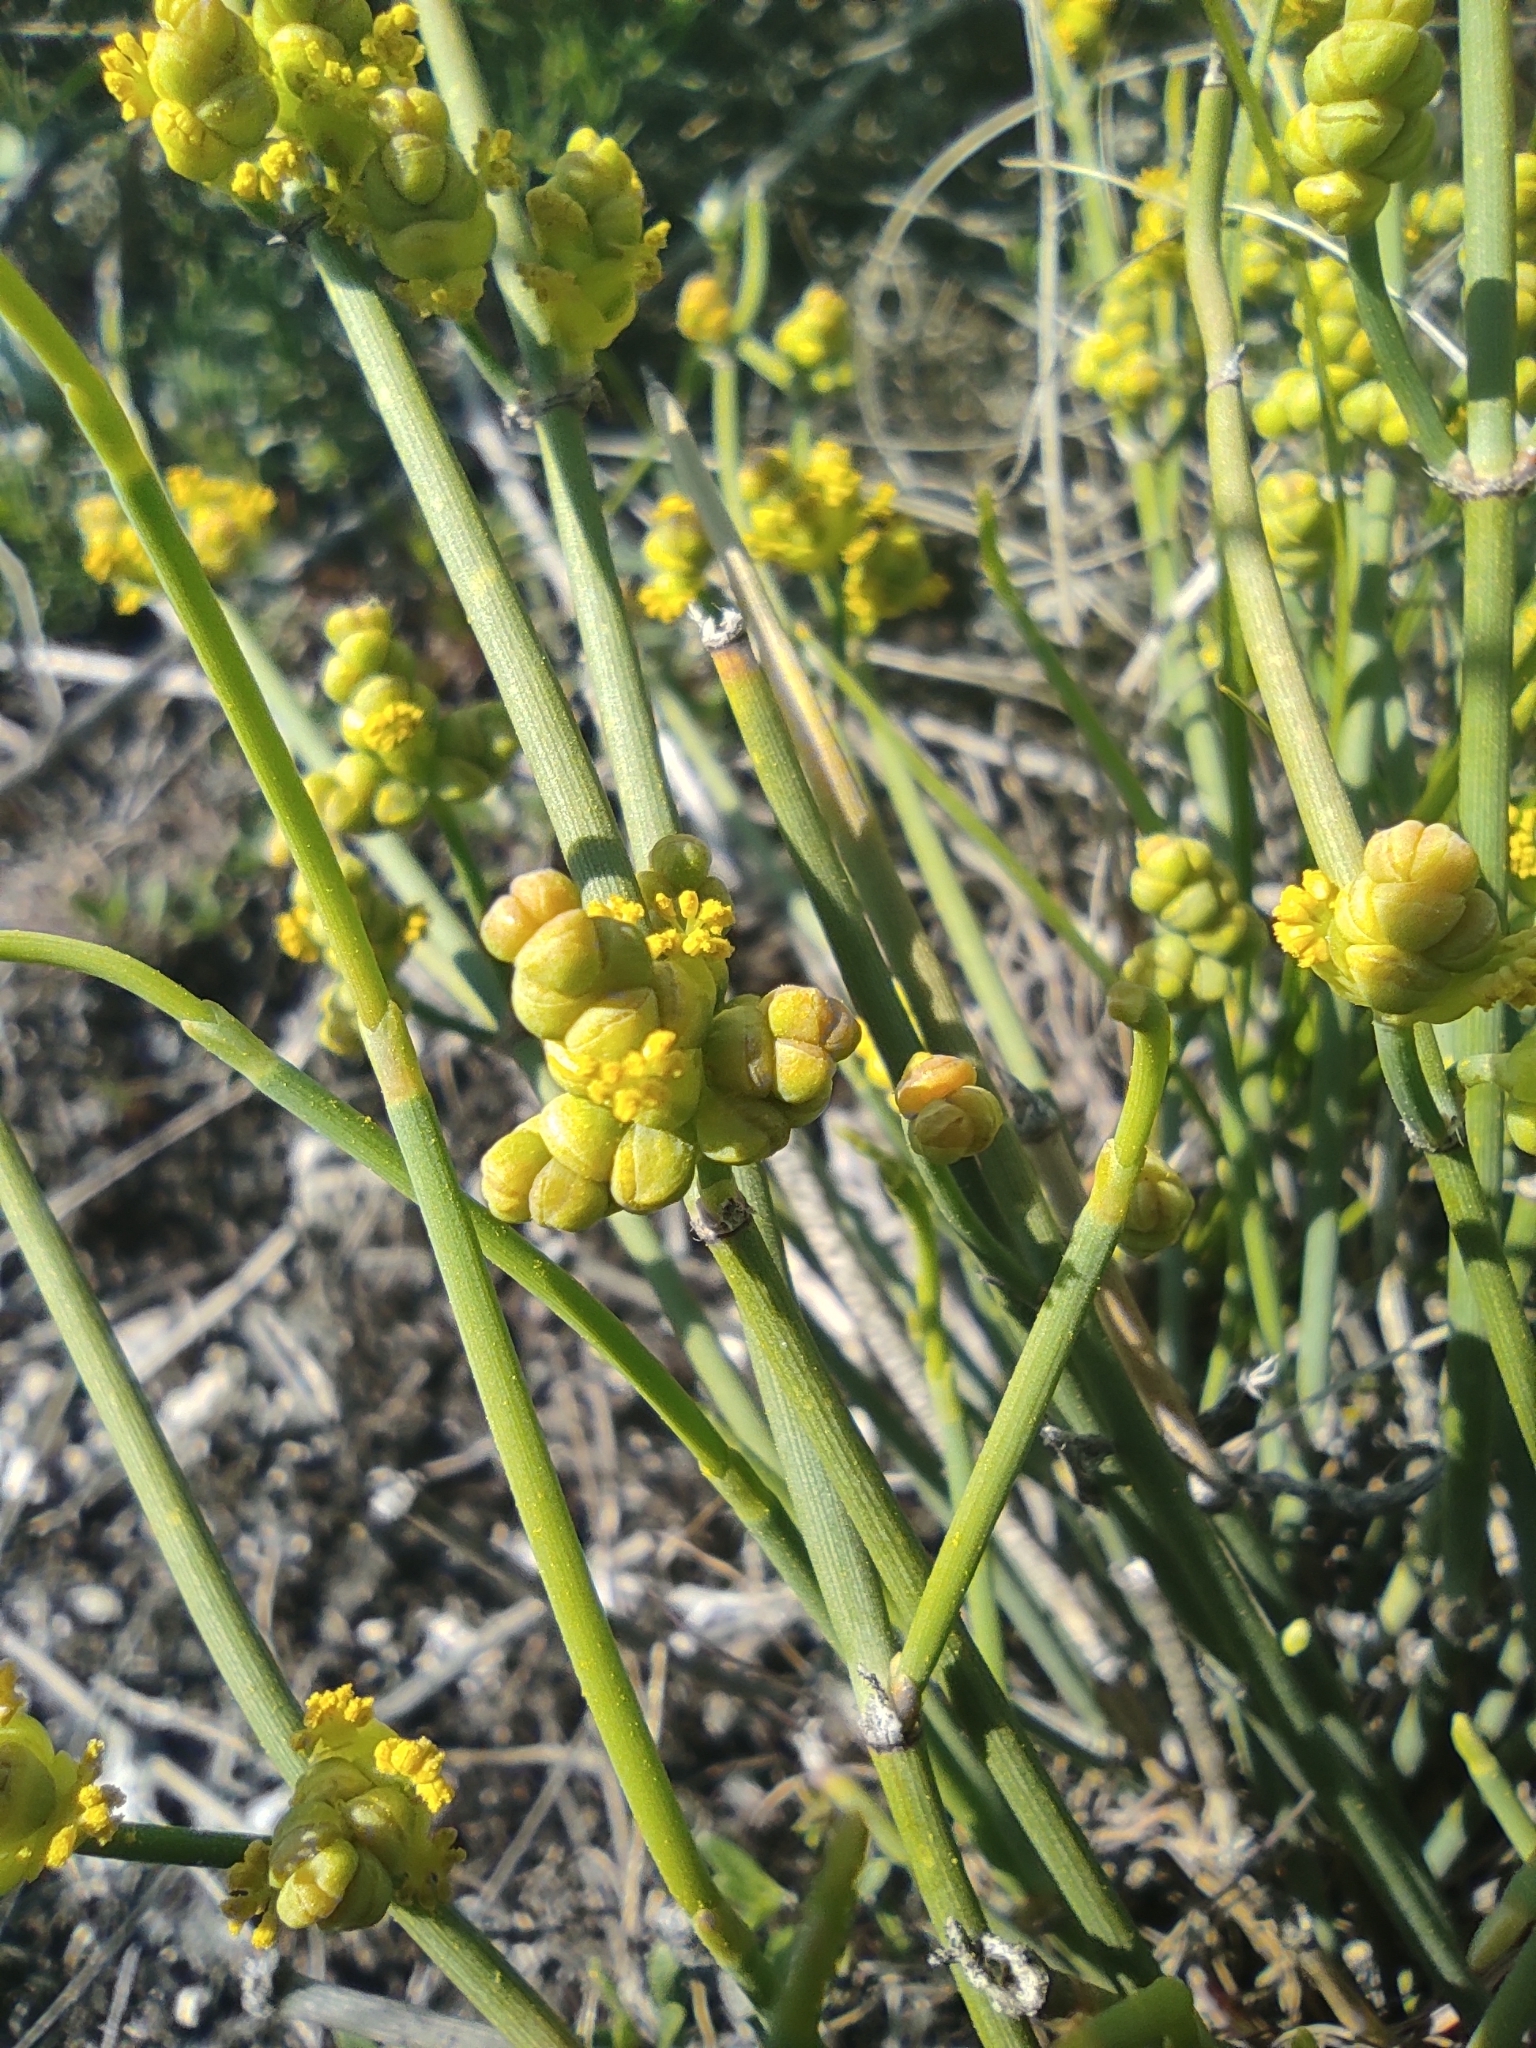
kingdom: Plantae
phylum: Tracheophyta
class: Gnetopsida
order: Ephedrales
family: Ephedraceae
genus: Ephedra
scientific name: Ephedra distachya
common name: Sea grape
